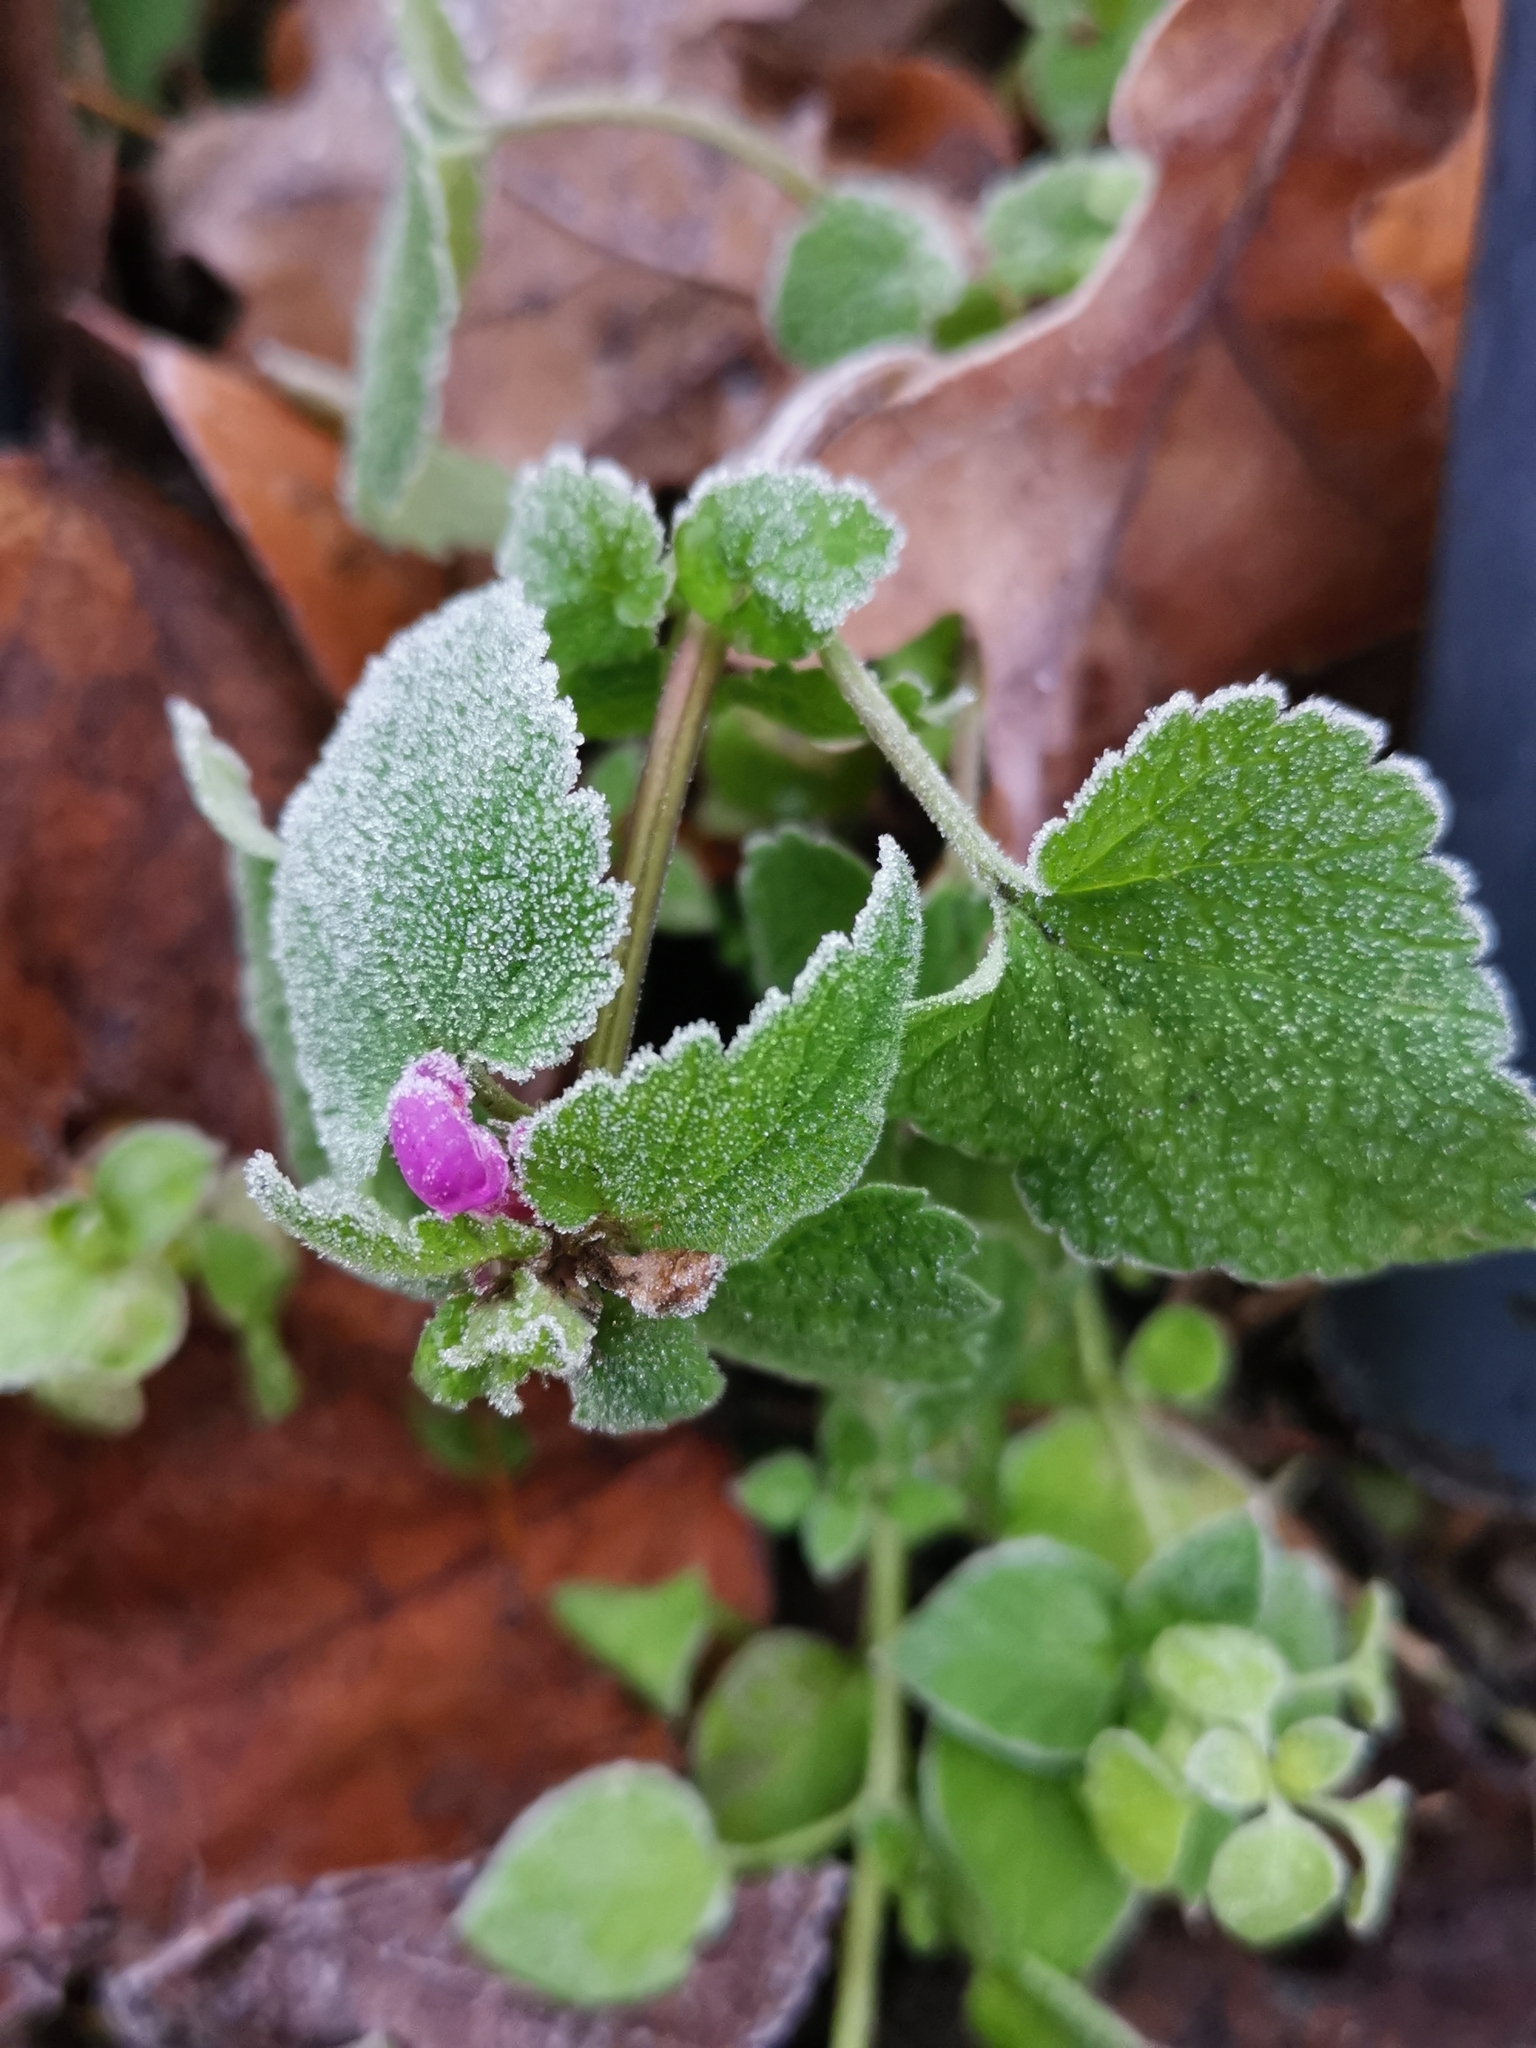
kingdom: Plantae
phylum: Tracheophyta
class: Magnoliopsida
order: Lamiales
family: Lamiaceae
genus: Lamium
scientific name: Lamium purpureum
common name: Red dead-nettle
